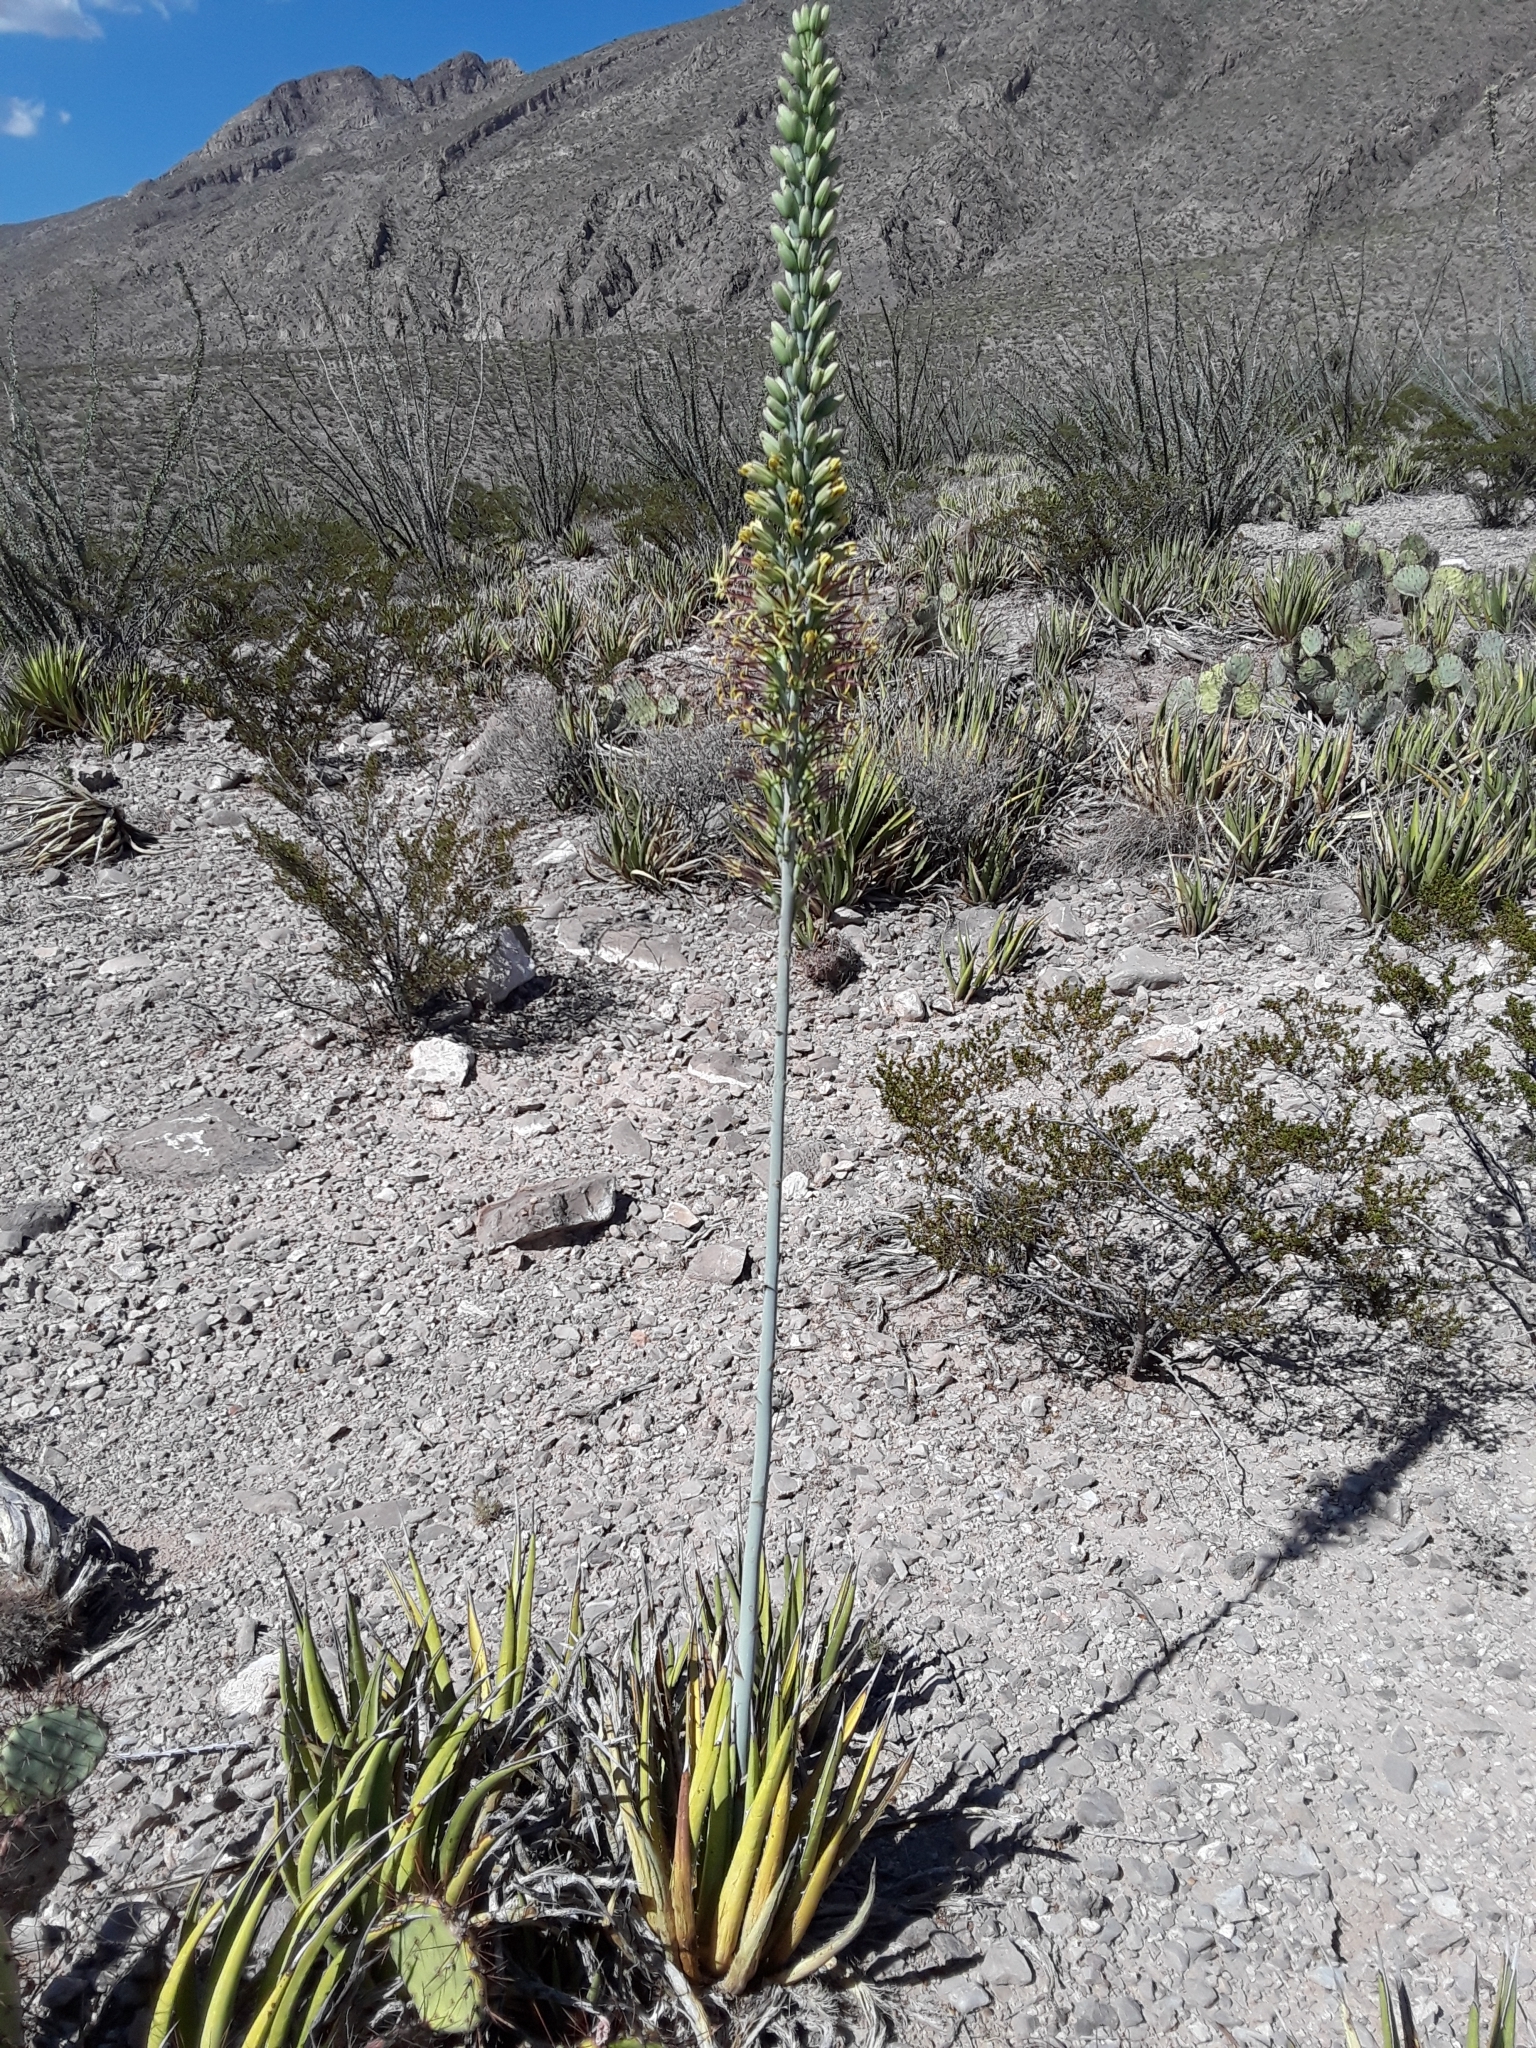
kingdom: Plantae
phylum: Tracheophyta
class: Liliopsida
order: Asparagales
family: Asparagaceae
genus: Agave
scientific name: Agave lechuguilla
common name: Lecheguilla agave
